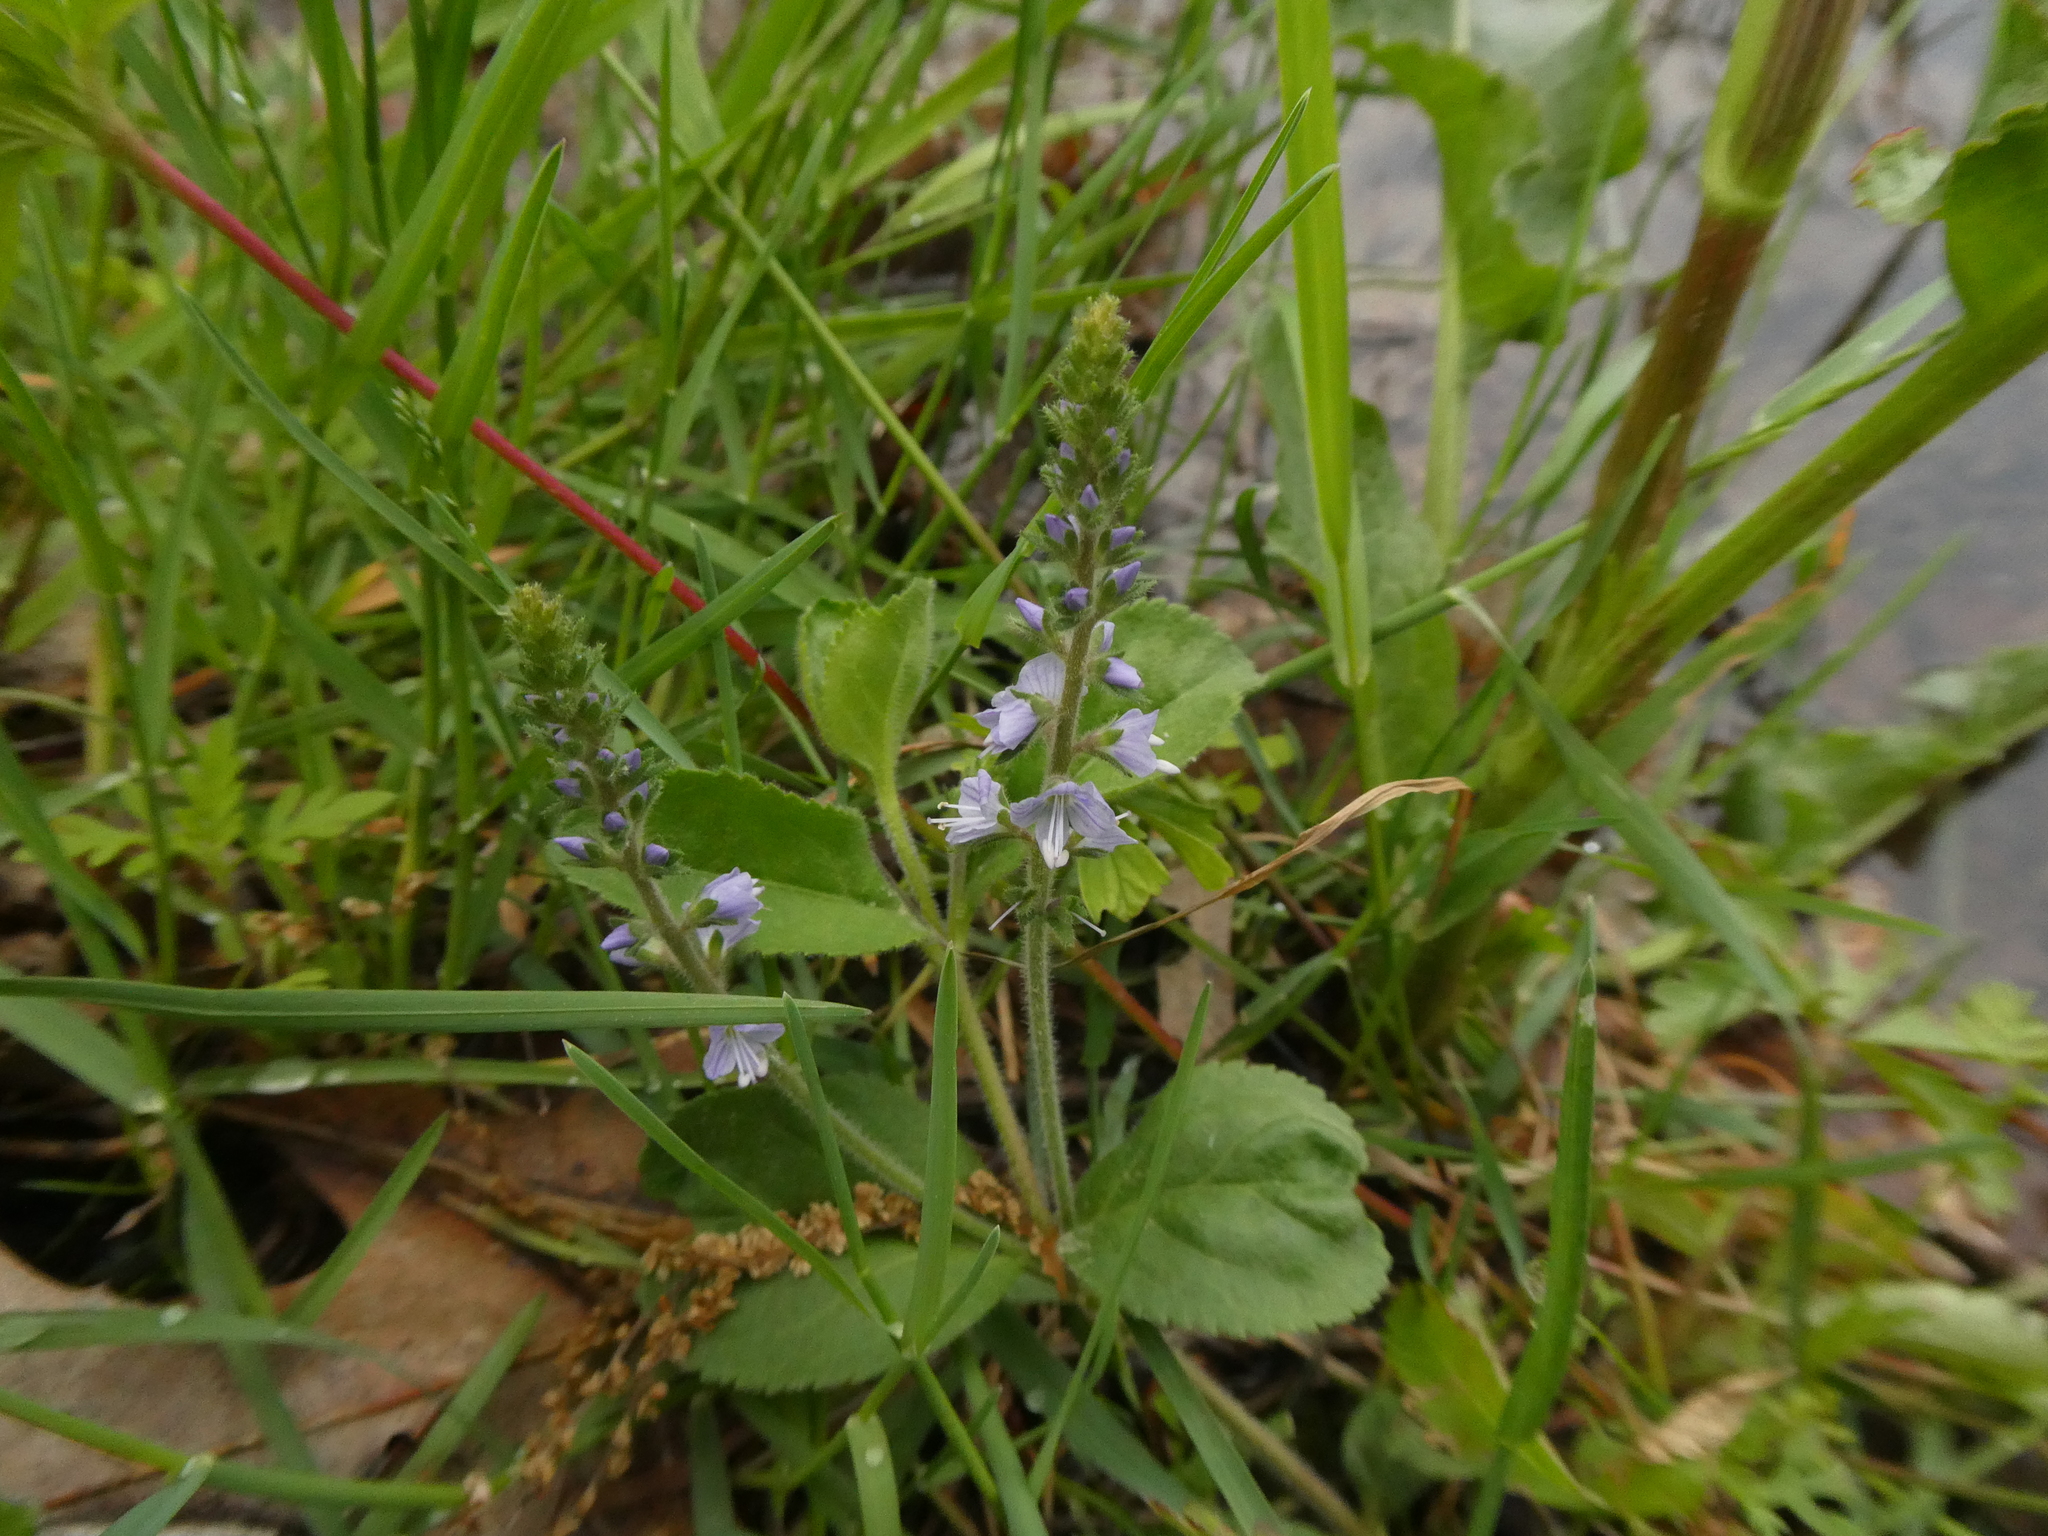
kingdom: Plantae
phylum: Tracheophyta
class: Magnoliopsida
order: Lamiales
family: Plantaginaceae
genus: Veronica
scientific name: Veronica officinalis
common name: Common speedwell
